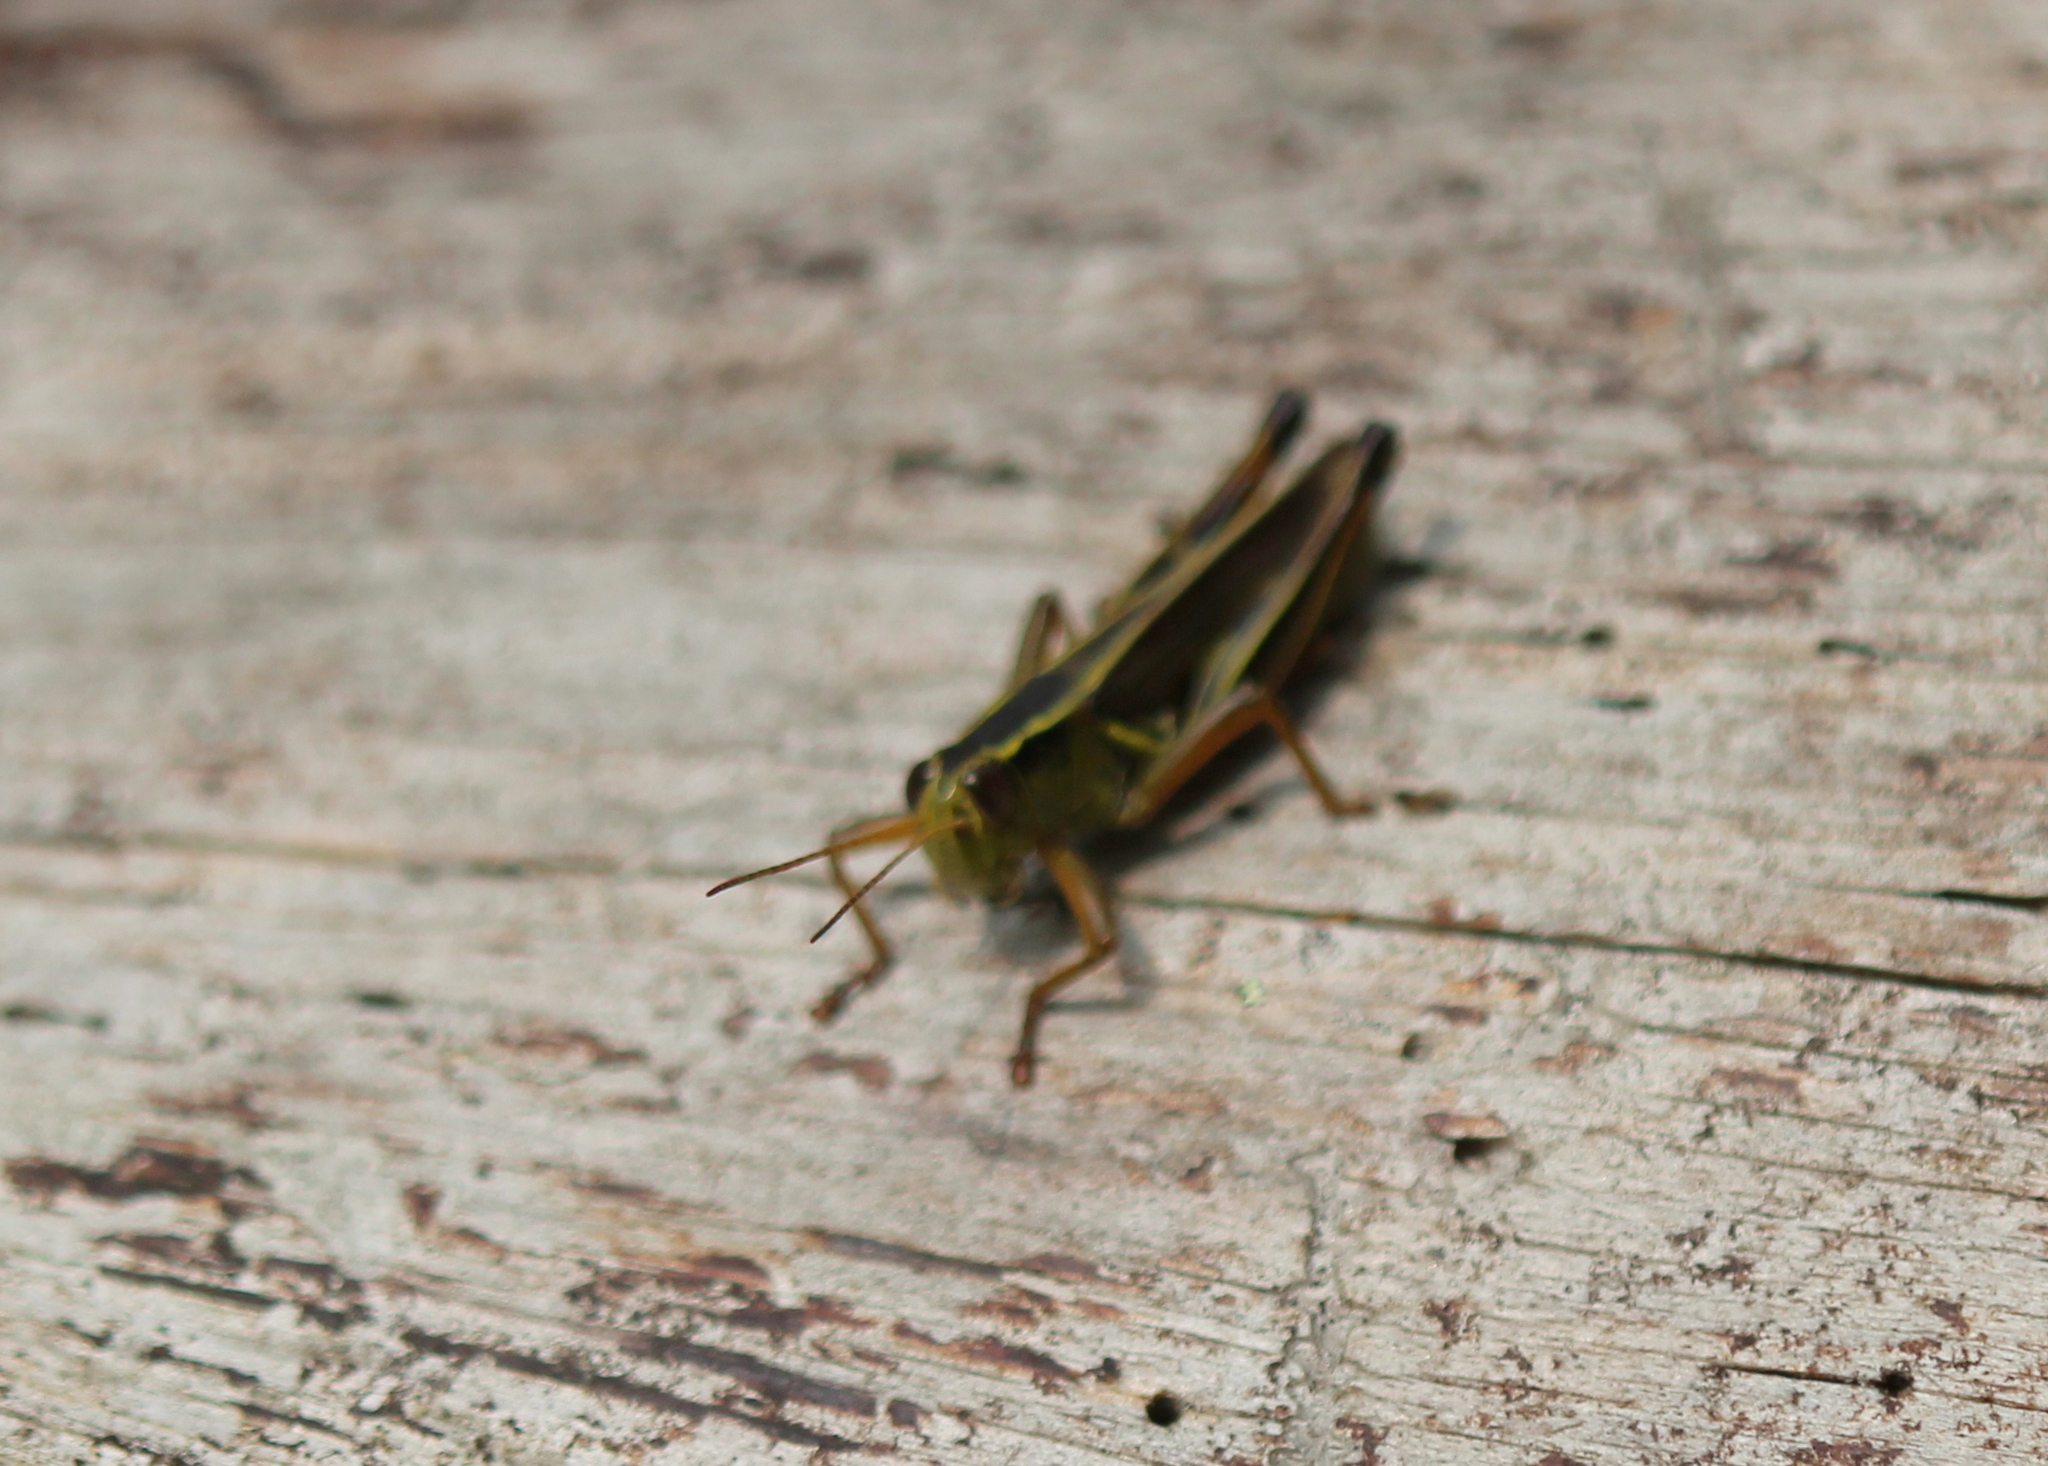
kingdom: Animalia
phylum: Arthropoda
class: Insecta
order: Orthoptera
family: Acrididae
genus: Melanoplus
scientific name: Melanoplus bivittatus
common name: Two-striped grasshopper
